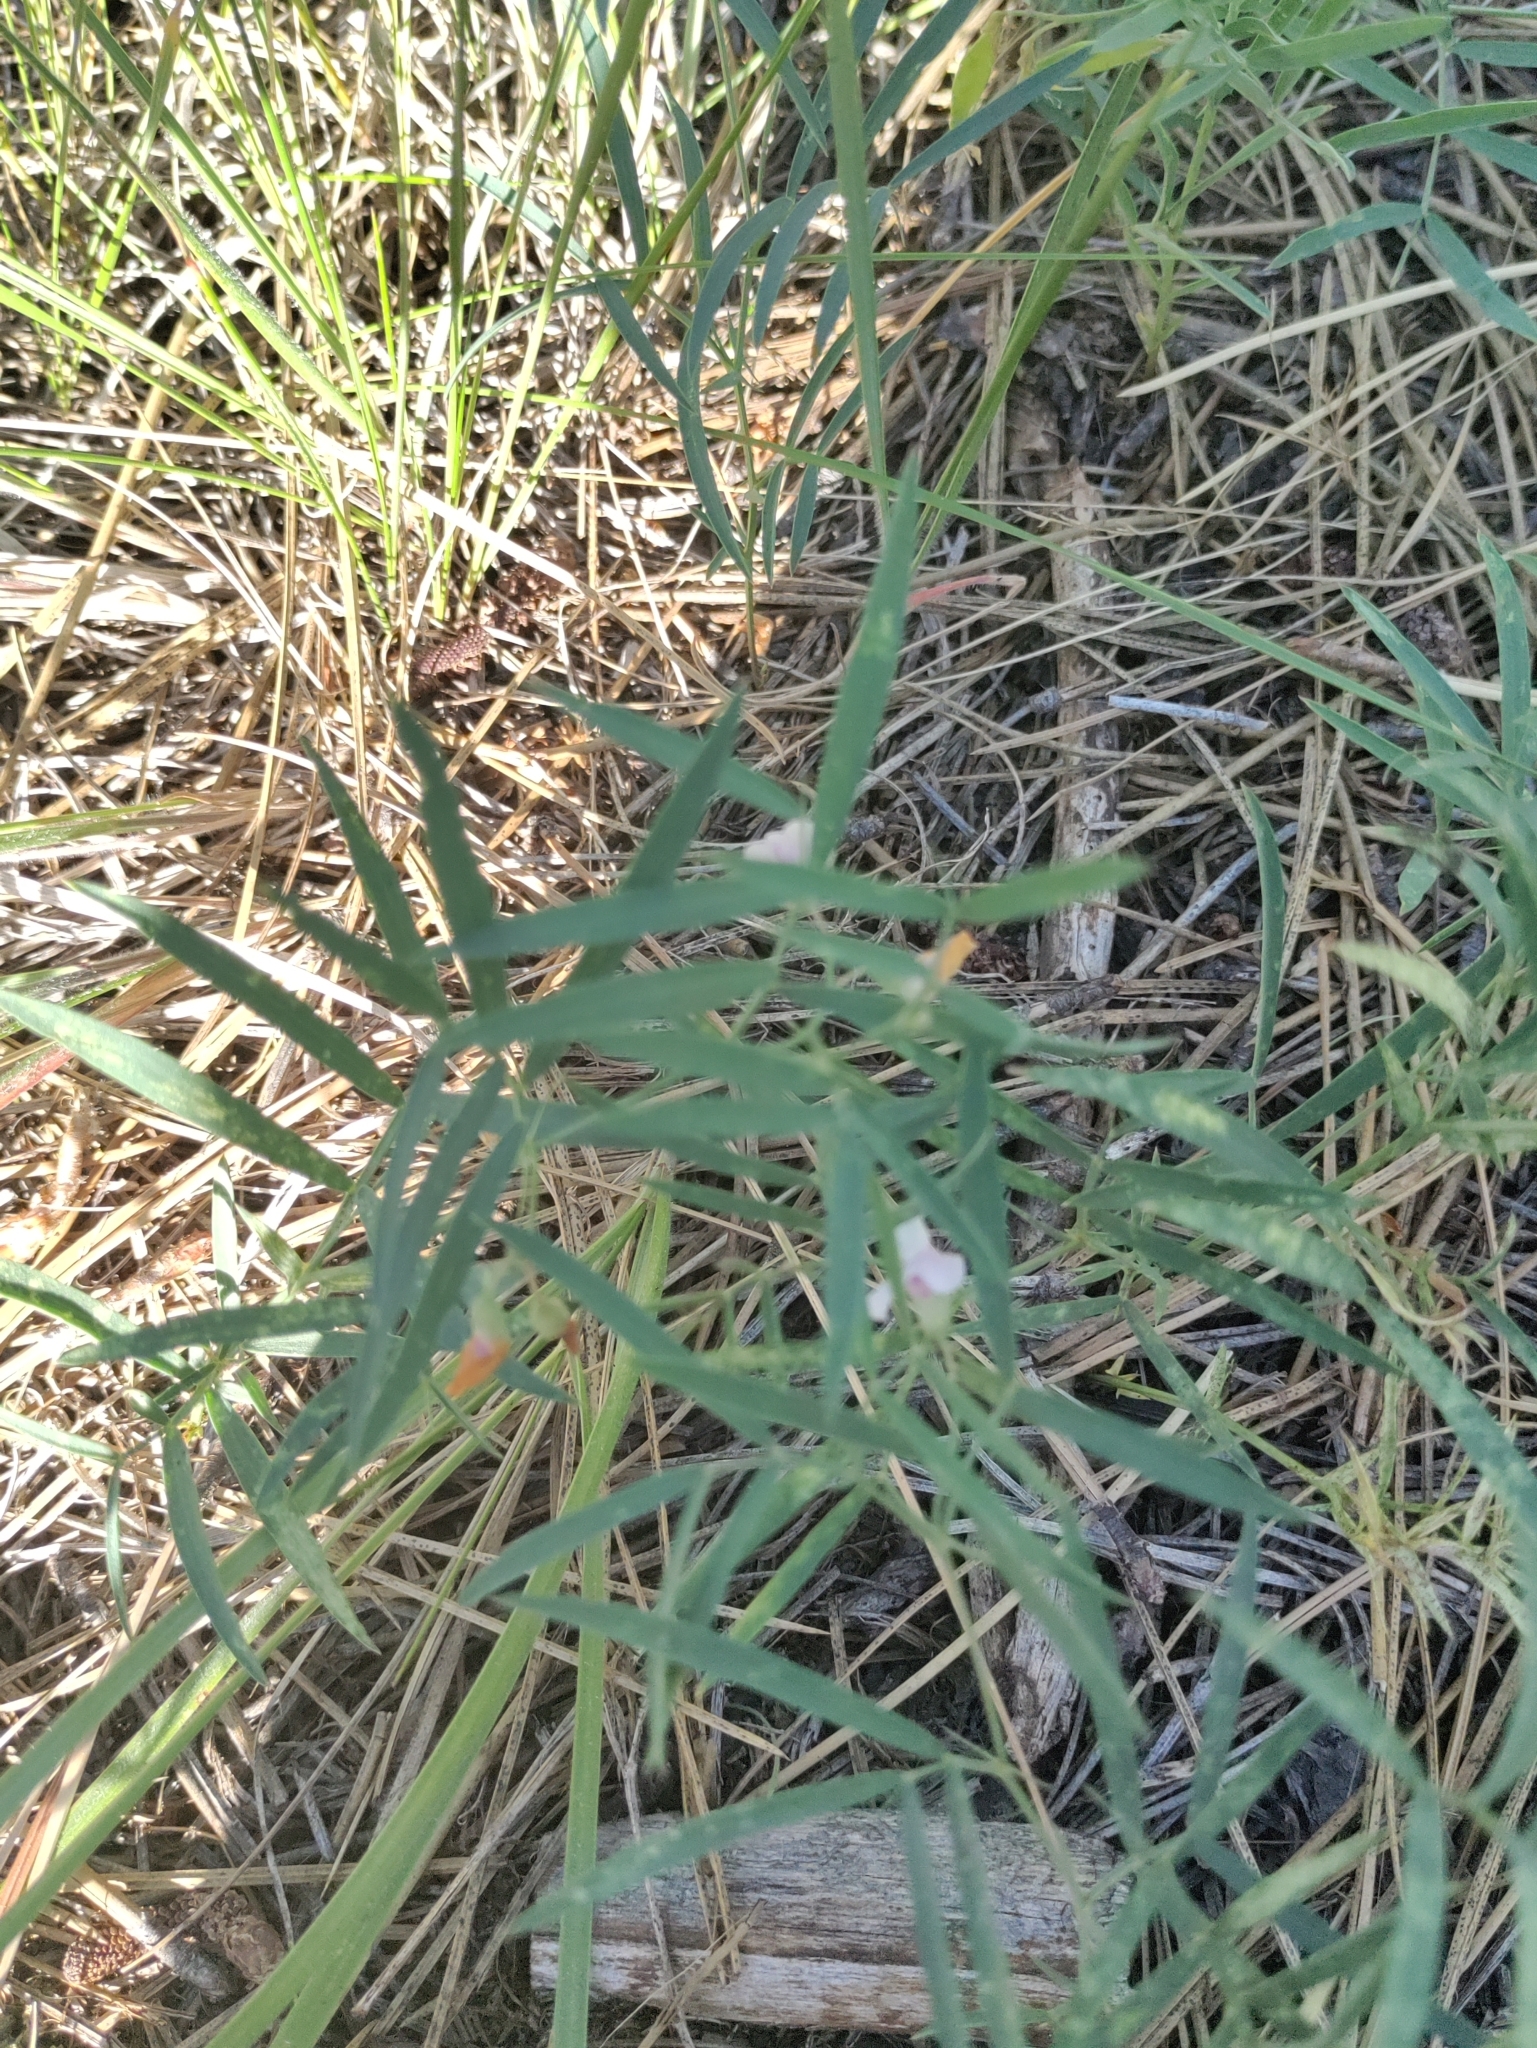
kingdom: Plantae
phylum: Tracheophyta
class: Magnoliopsida
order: Fabales
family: Fabaceae
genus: Lathyrus
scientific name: Lathyrus lanszwertii
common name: Lanszwert's vetchling
